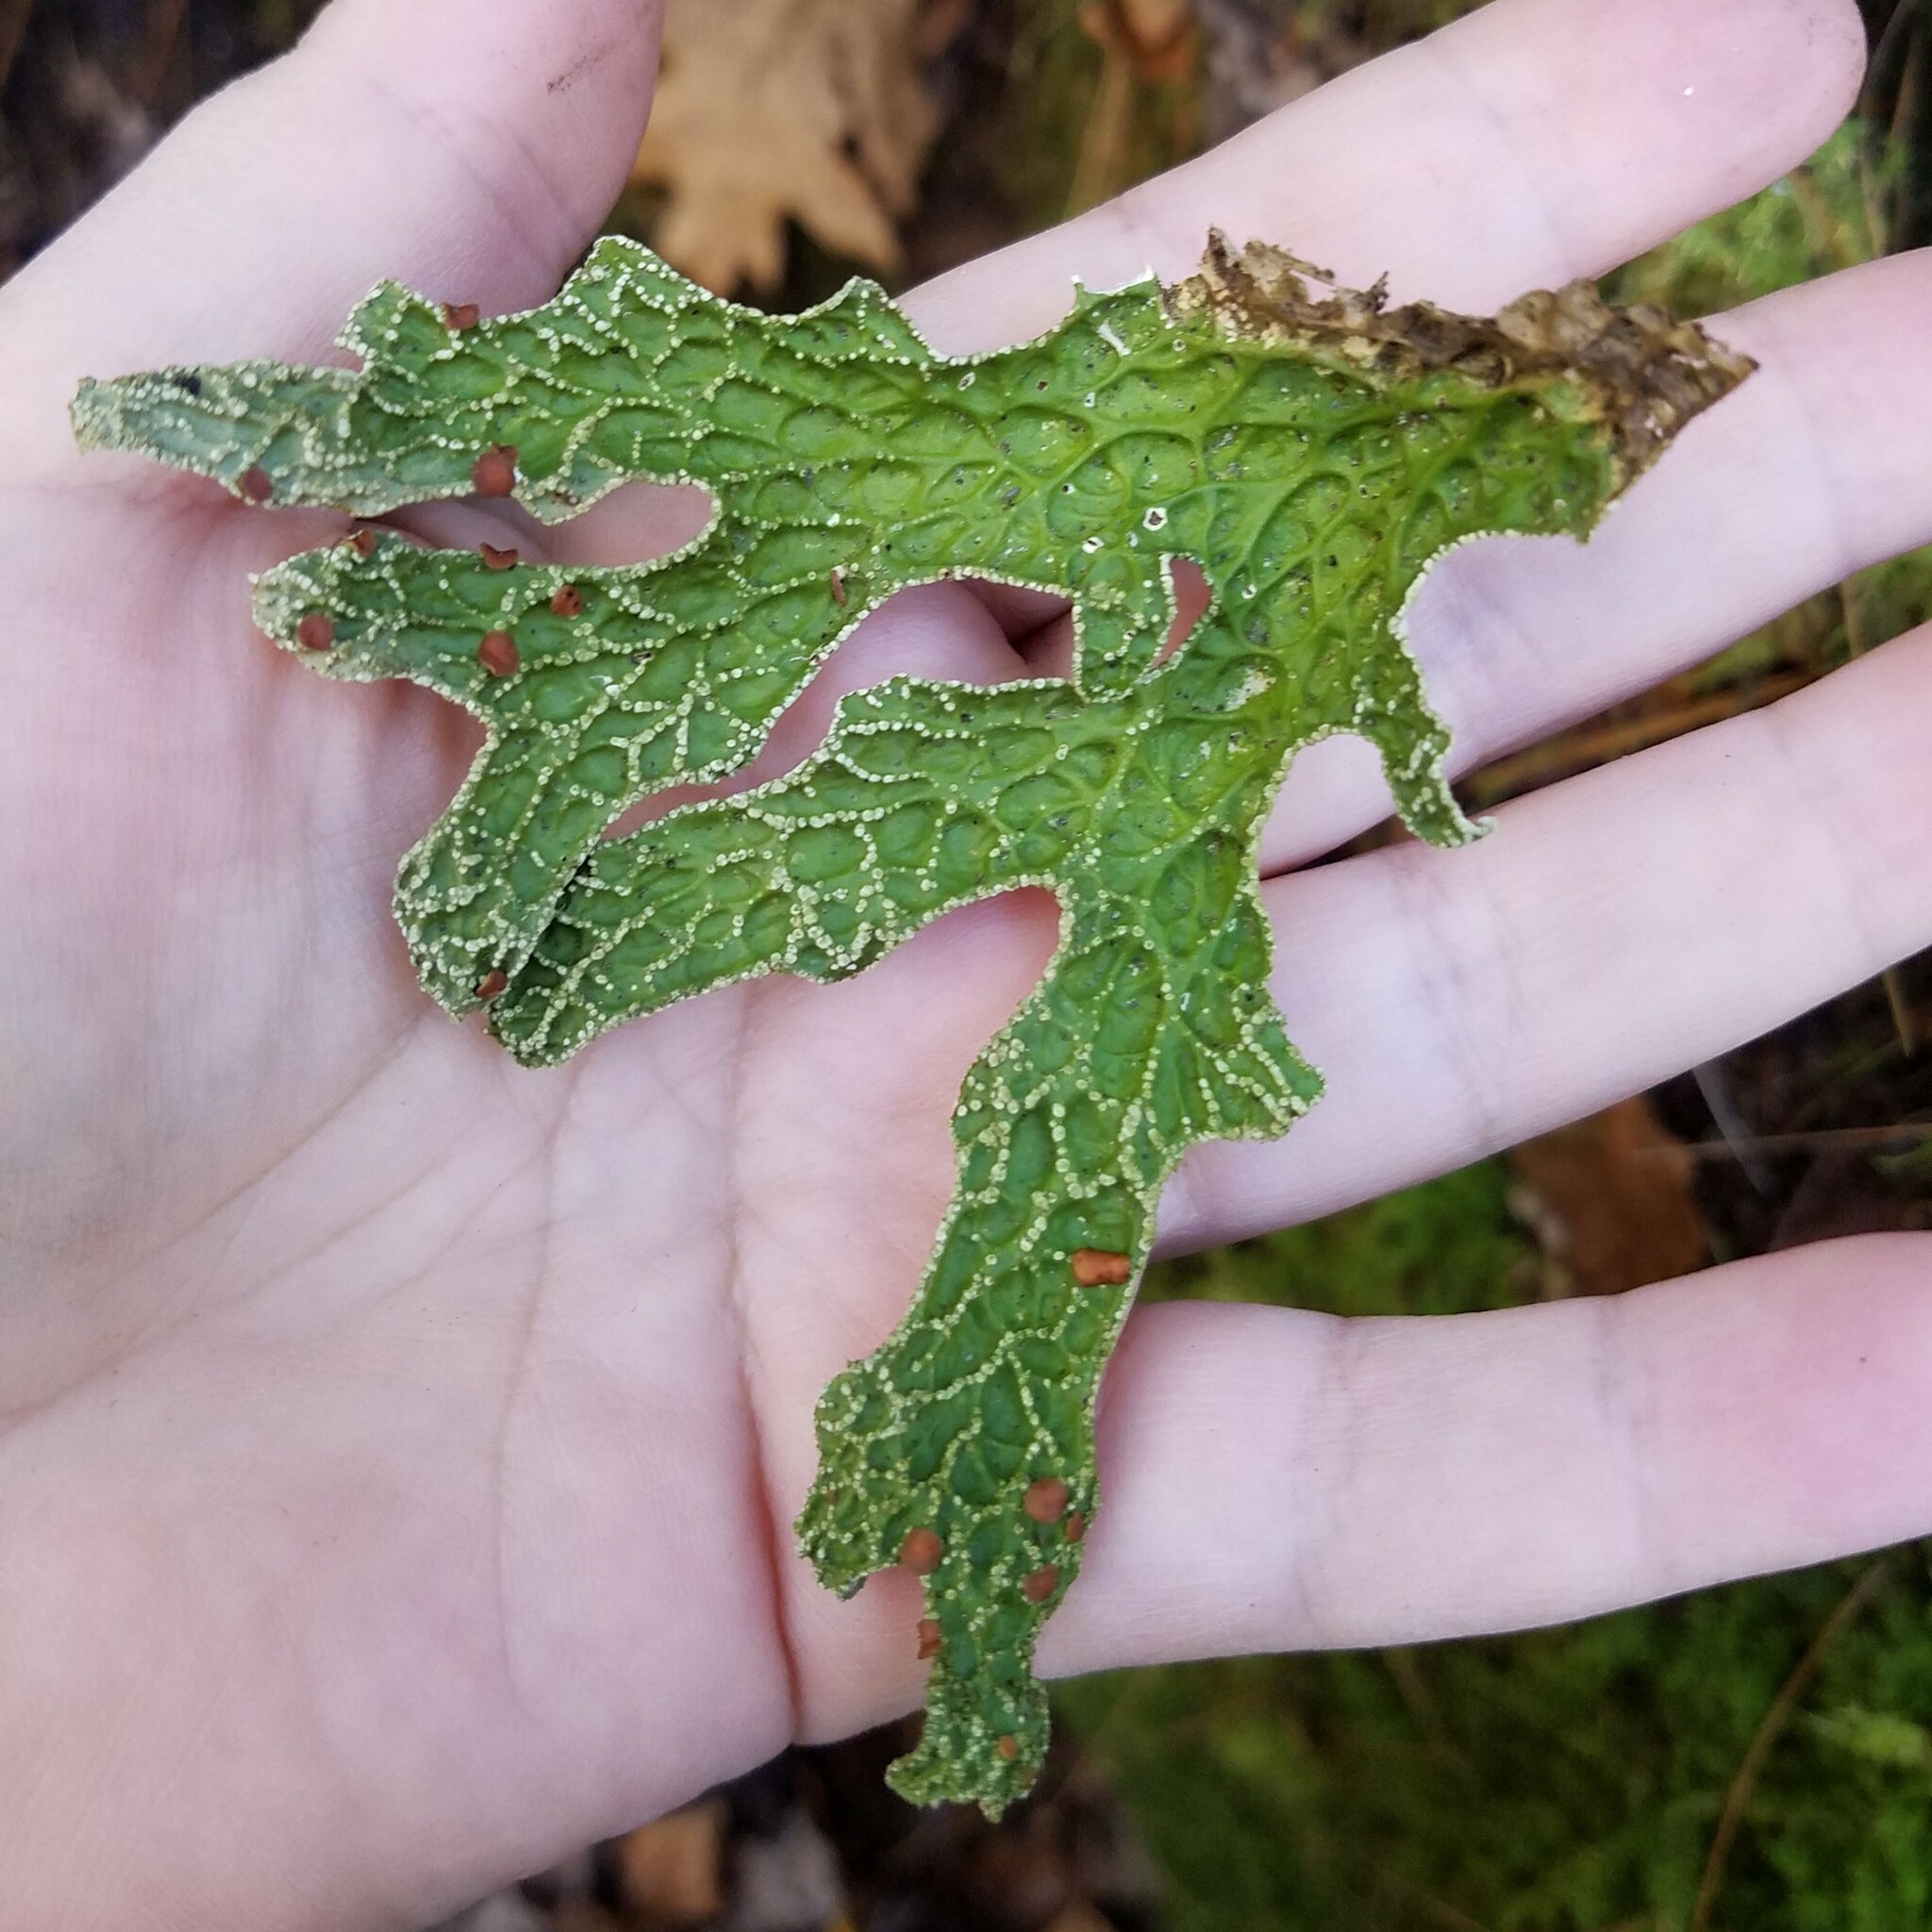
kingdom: Fungi
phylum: Ascomycota
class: Lecanoromycetes
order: Peltigerales
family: Lobariaceae
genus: Lobaria
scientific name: Lobaria pulmonaria
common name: Lungwort
